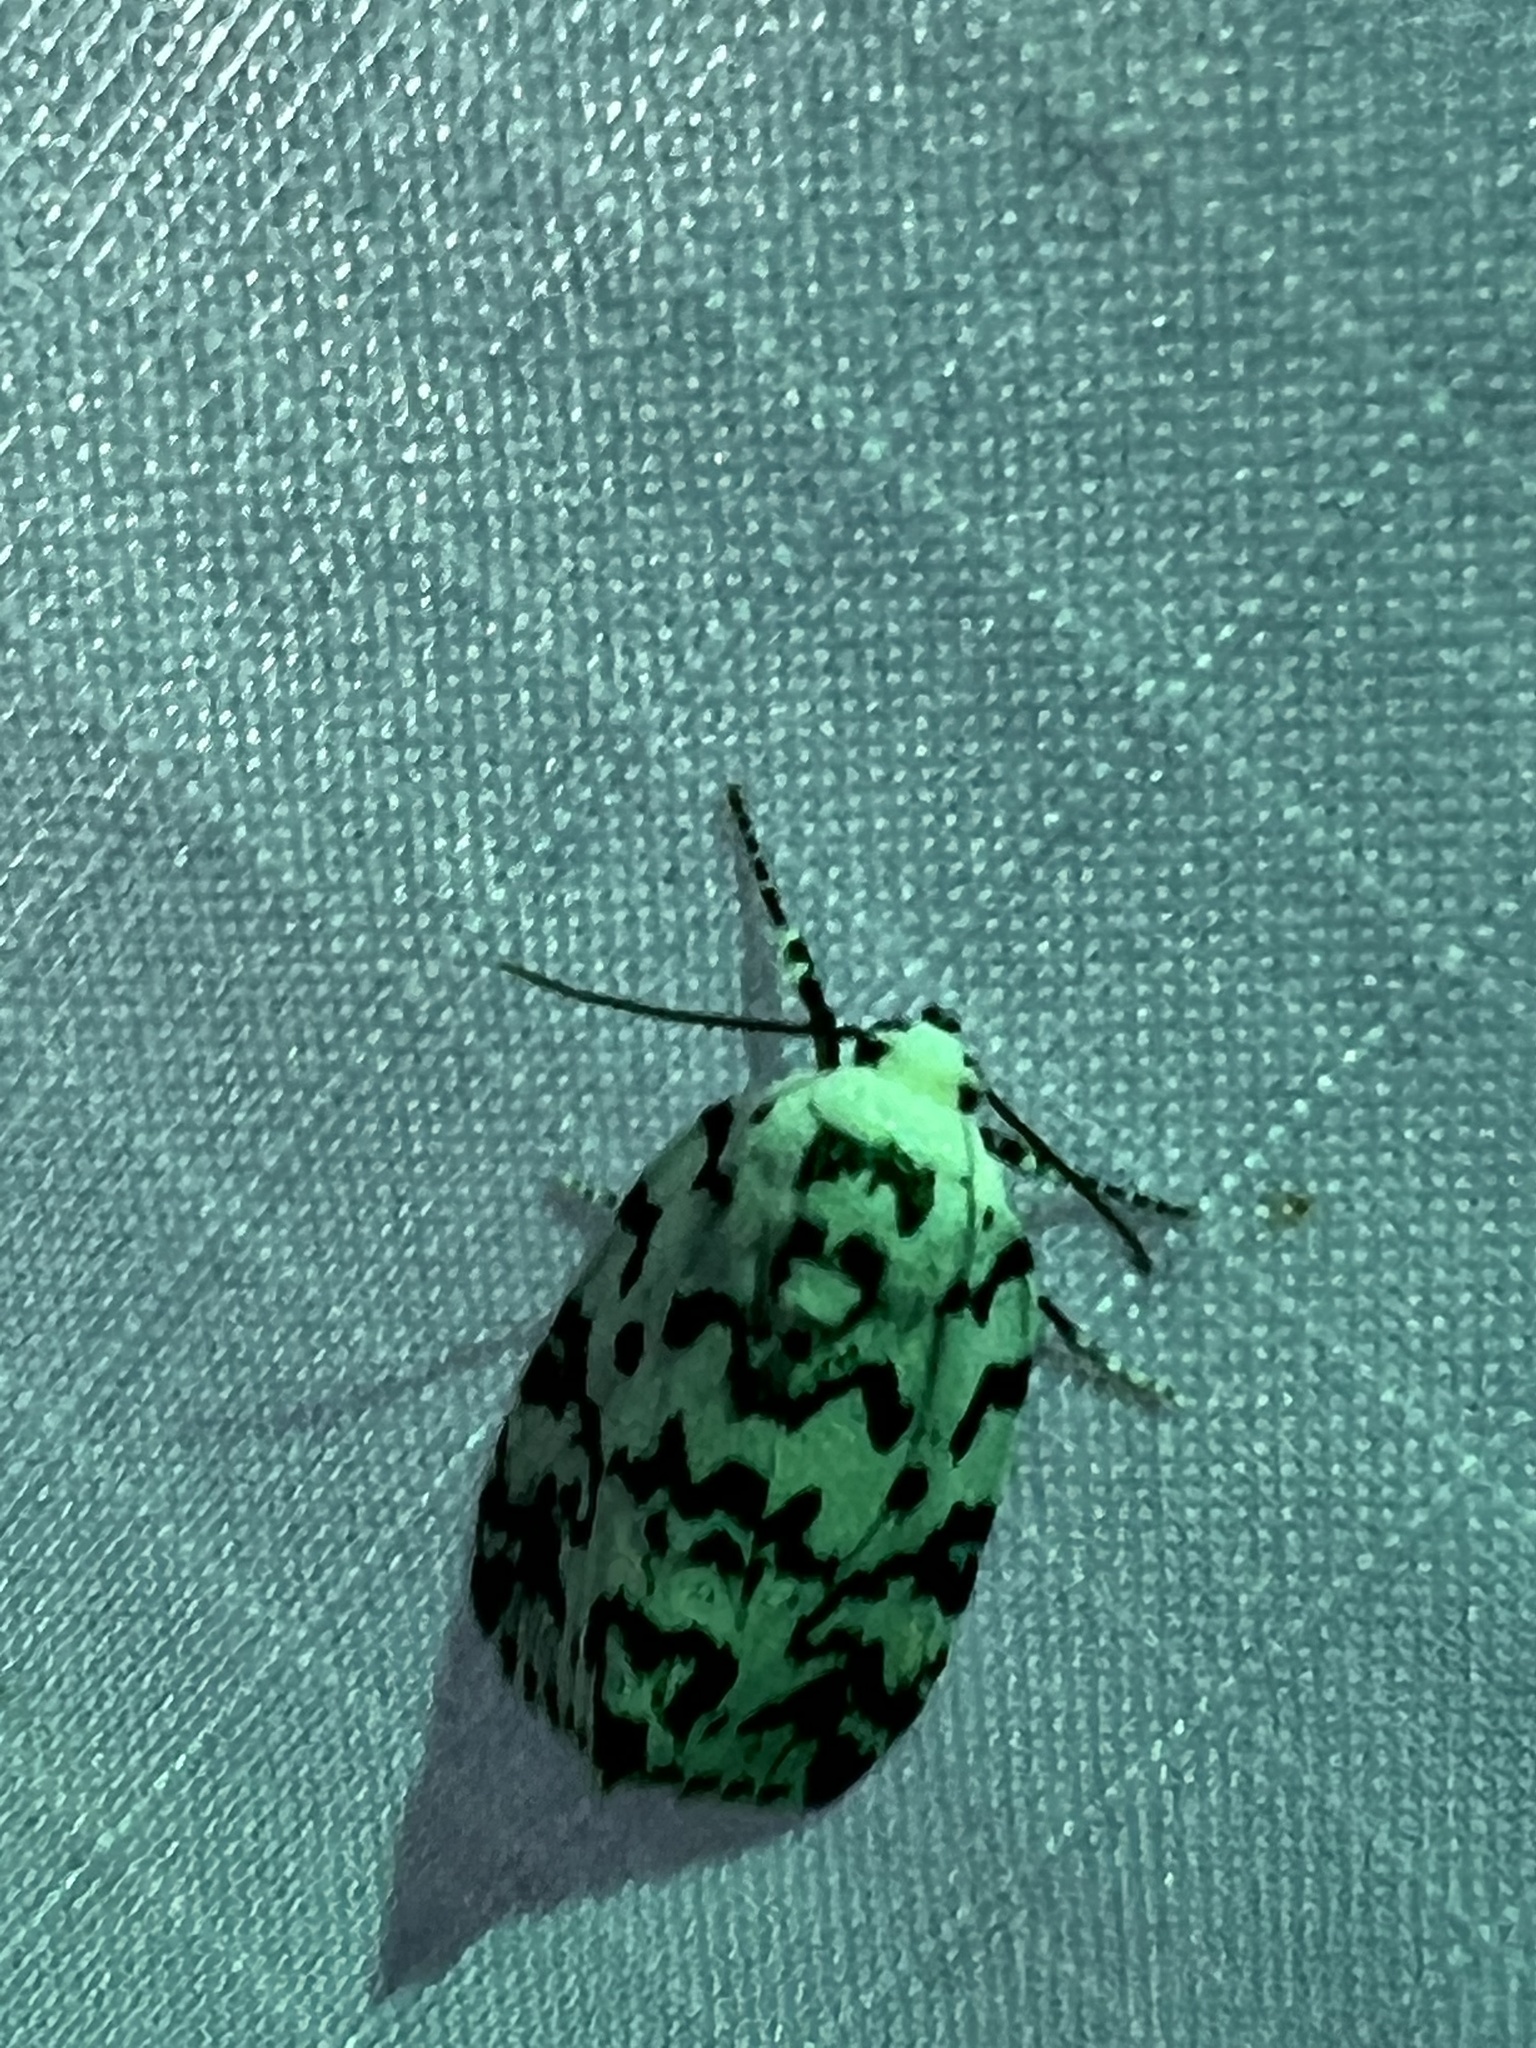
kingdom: Animalia
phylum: Arthropoda
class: Insecta
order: Lepidoptera
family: Noctuidae
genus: Polygrammate
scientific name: Polygrammate hebraeicum
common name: Hebrew moth
